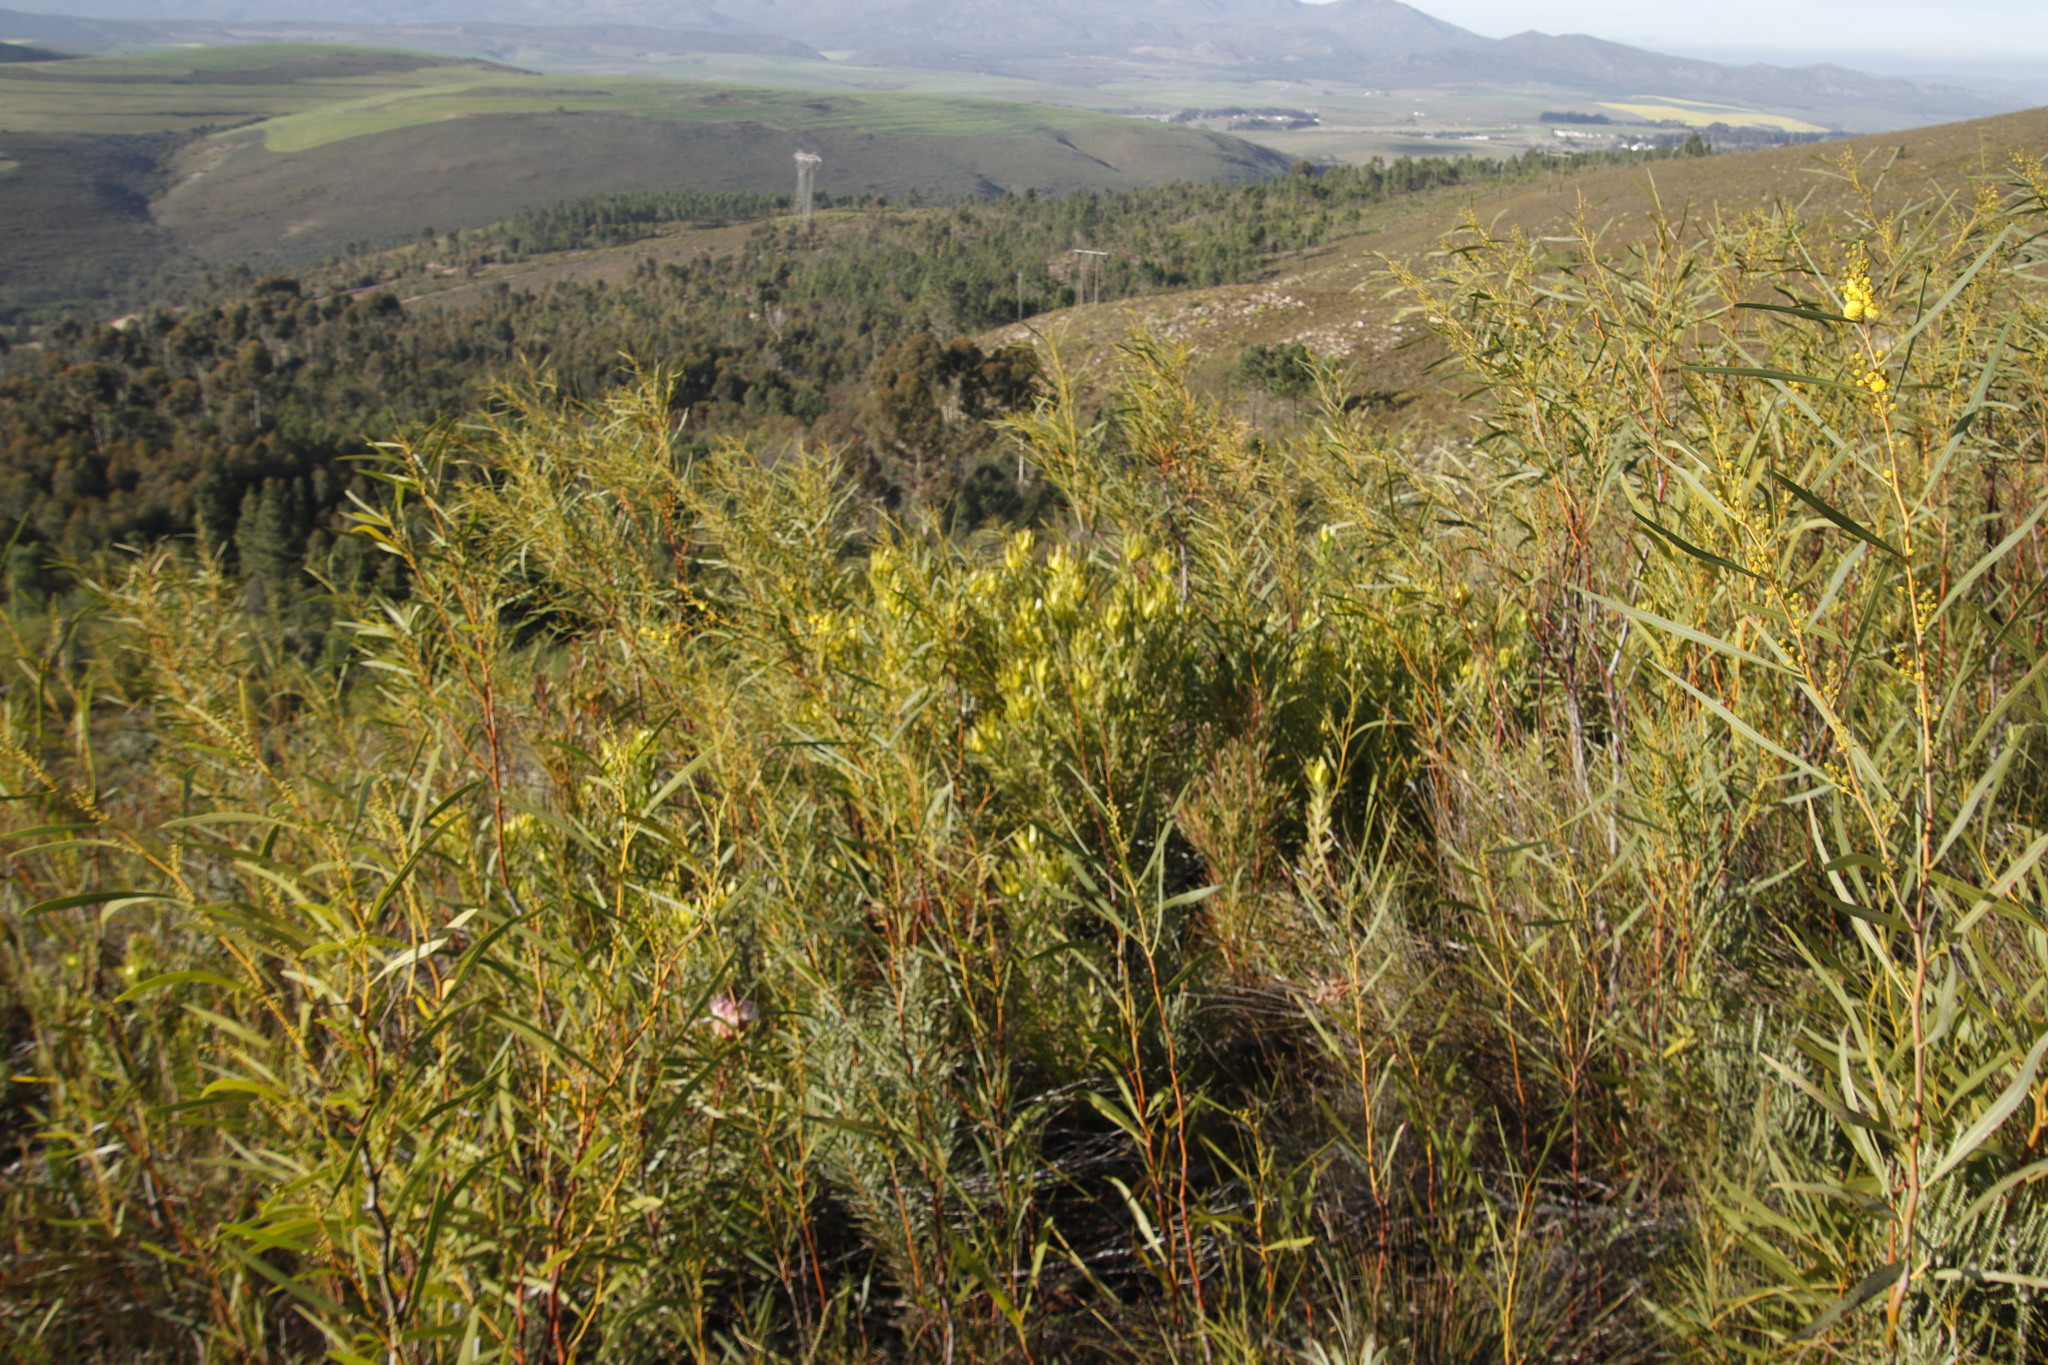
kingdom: Plantae
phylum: Tracheophyta
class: Magnoliopsida
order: Fabales
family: Fabaceae
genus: Acacia
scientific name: Acacia saligna
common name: Orange wattle
